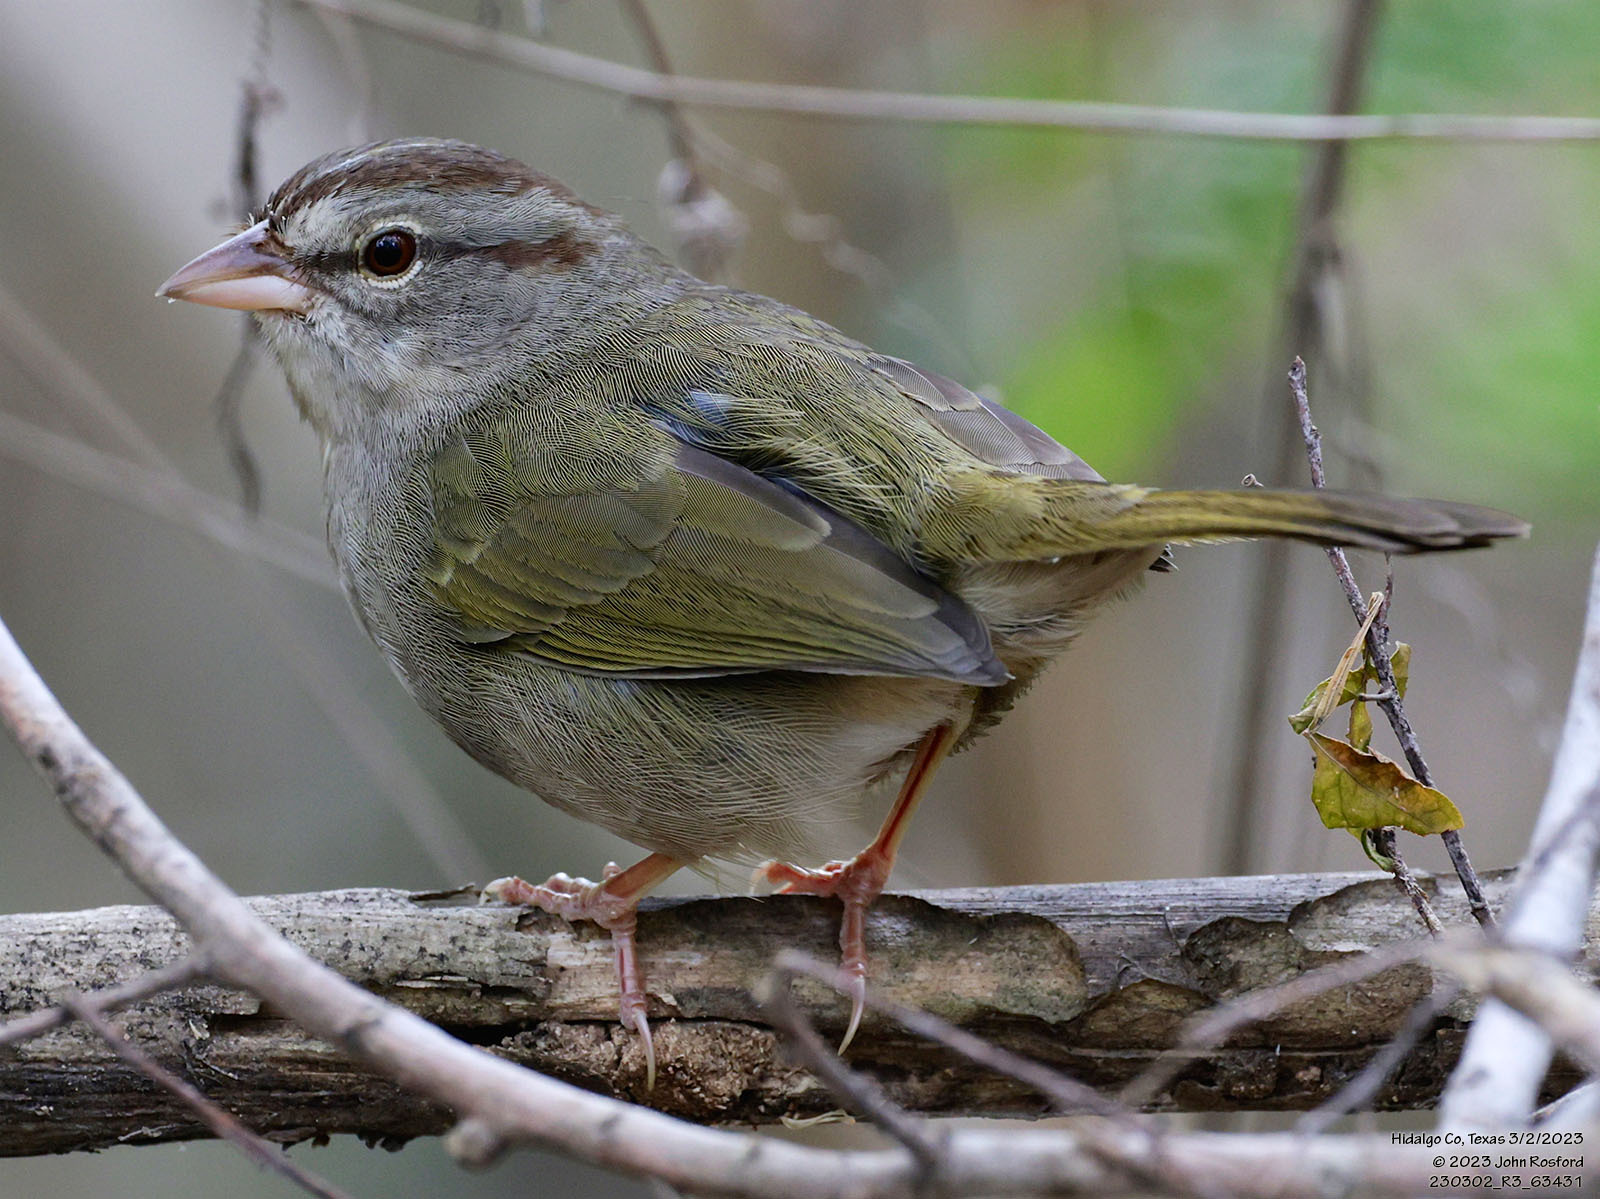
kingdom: Animalia
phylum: Chordata
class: Aves
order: Passeriformes
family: Passerellidae
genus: Arremonops
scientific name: Arremonops rufivirgatus
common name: Olive sparrow
